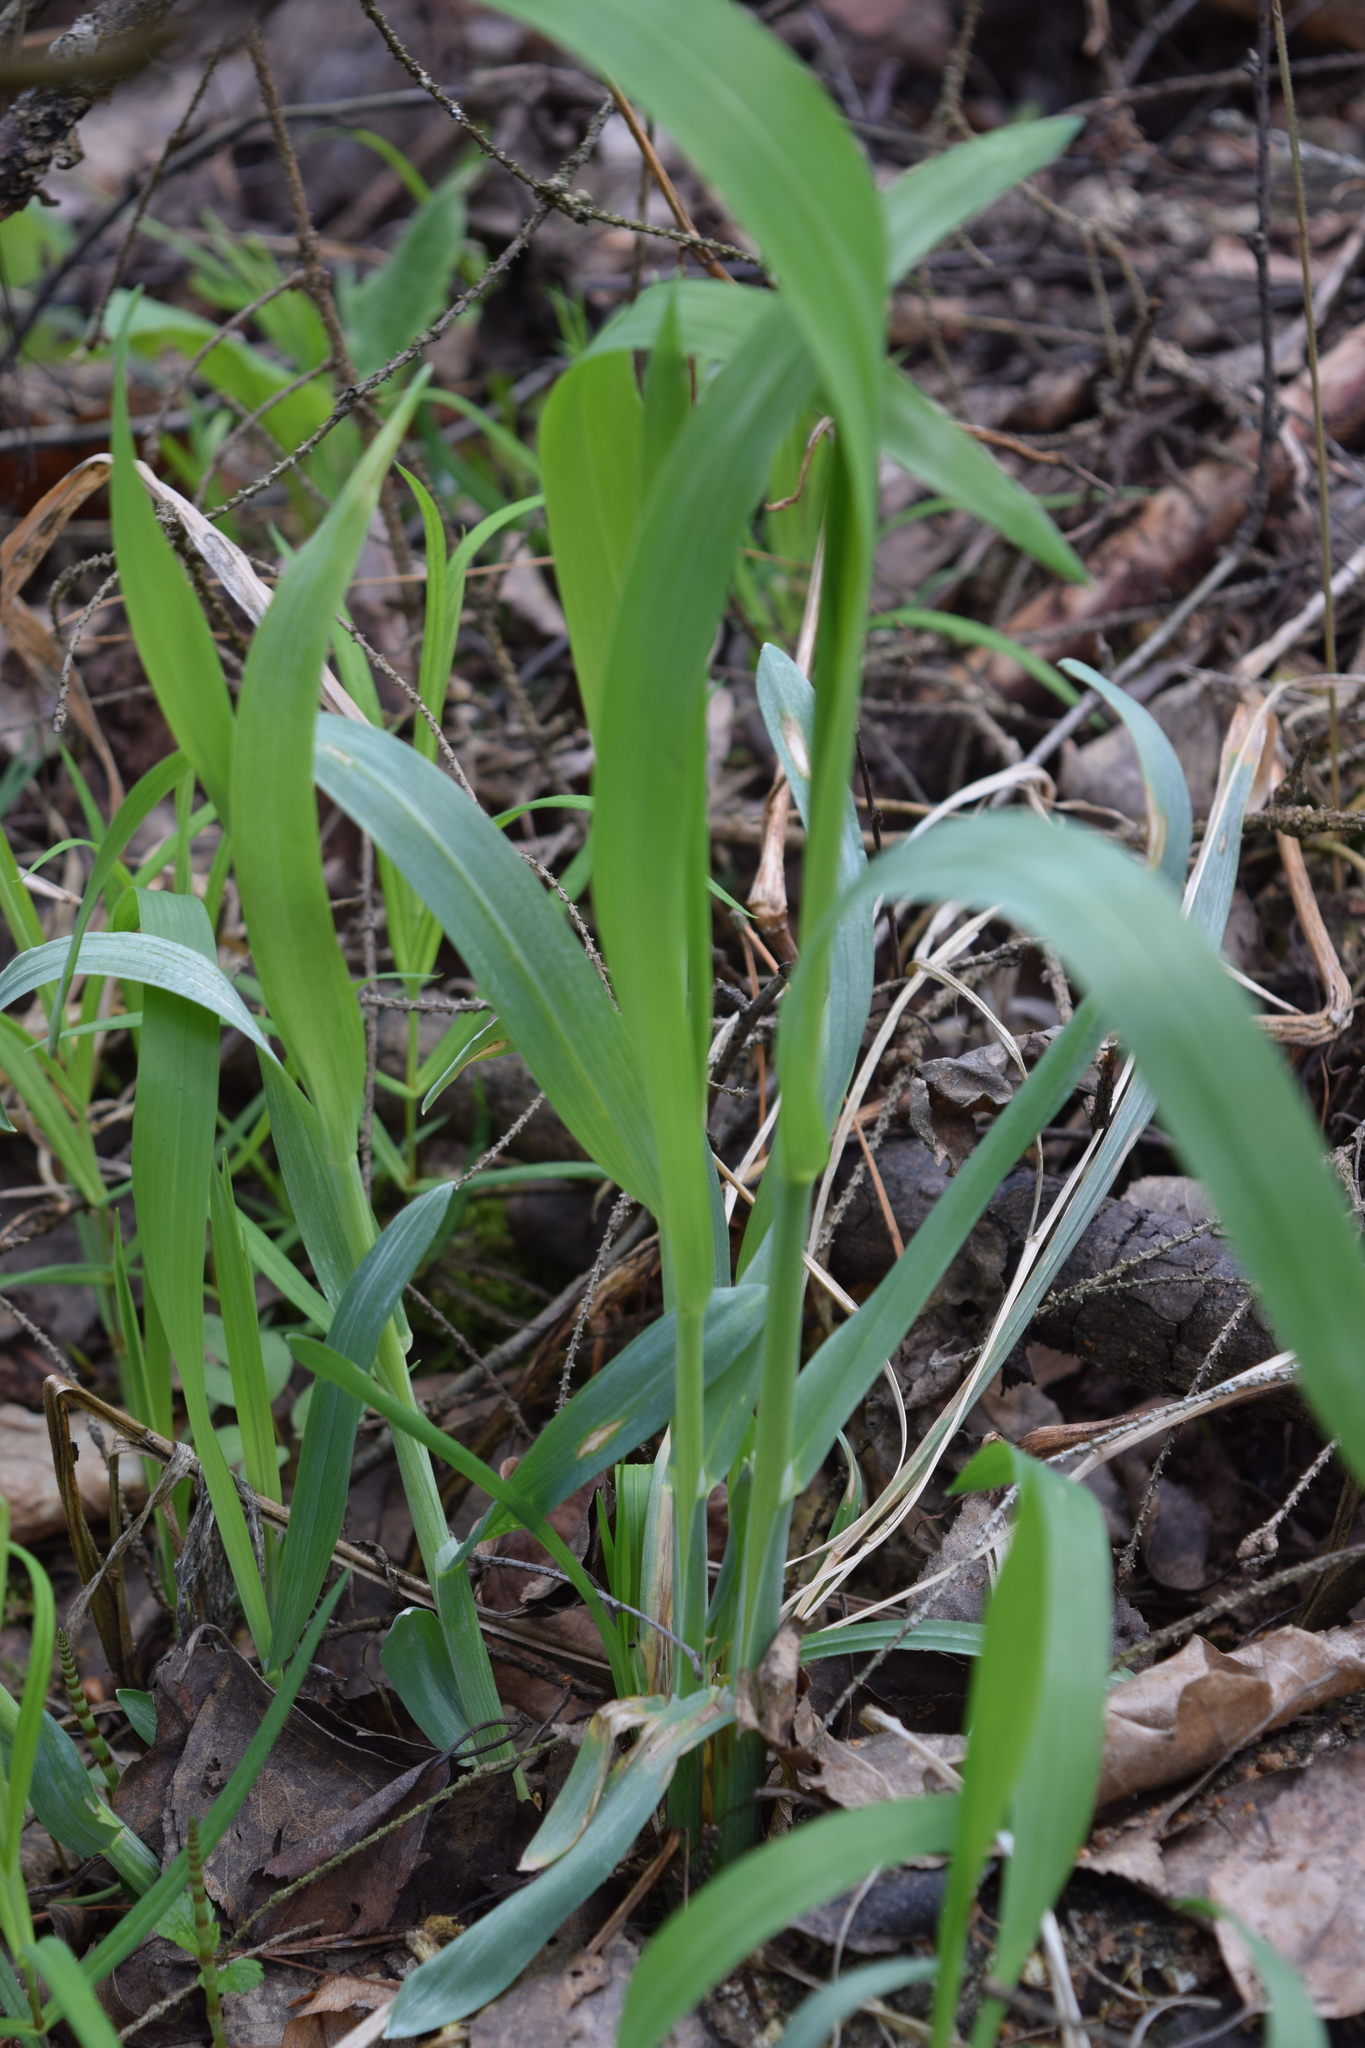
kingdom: Plantae
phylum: Tracheophyta
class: Liliopsida
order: Poales
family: Poaceae
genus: Milium
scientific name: Milium effusum
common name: Wood millet
